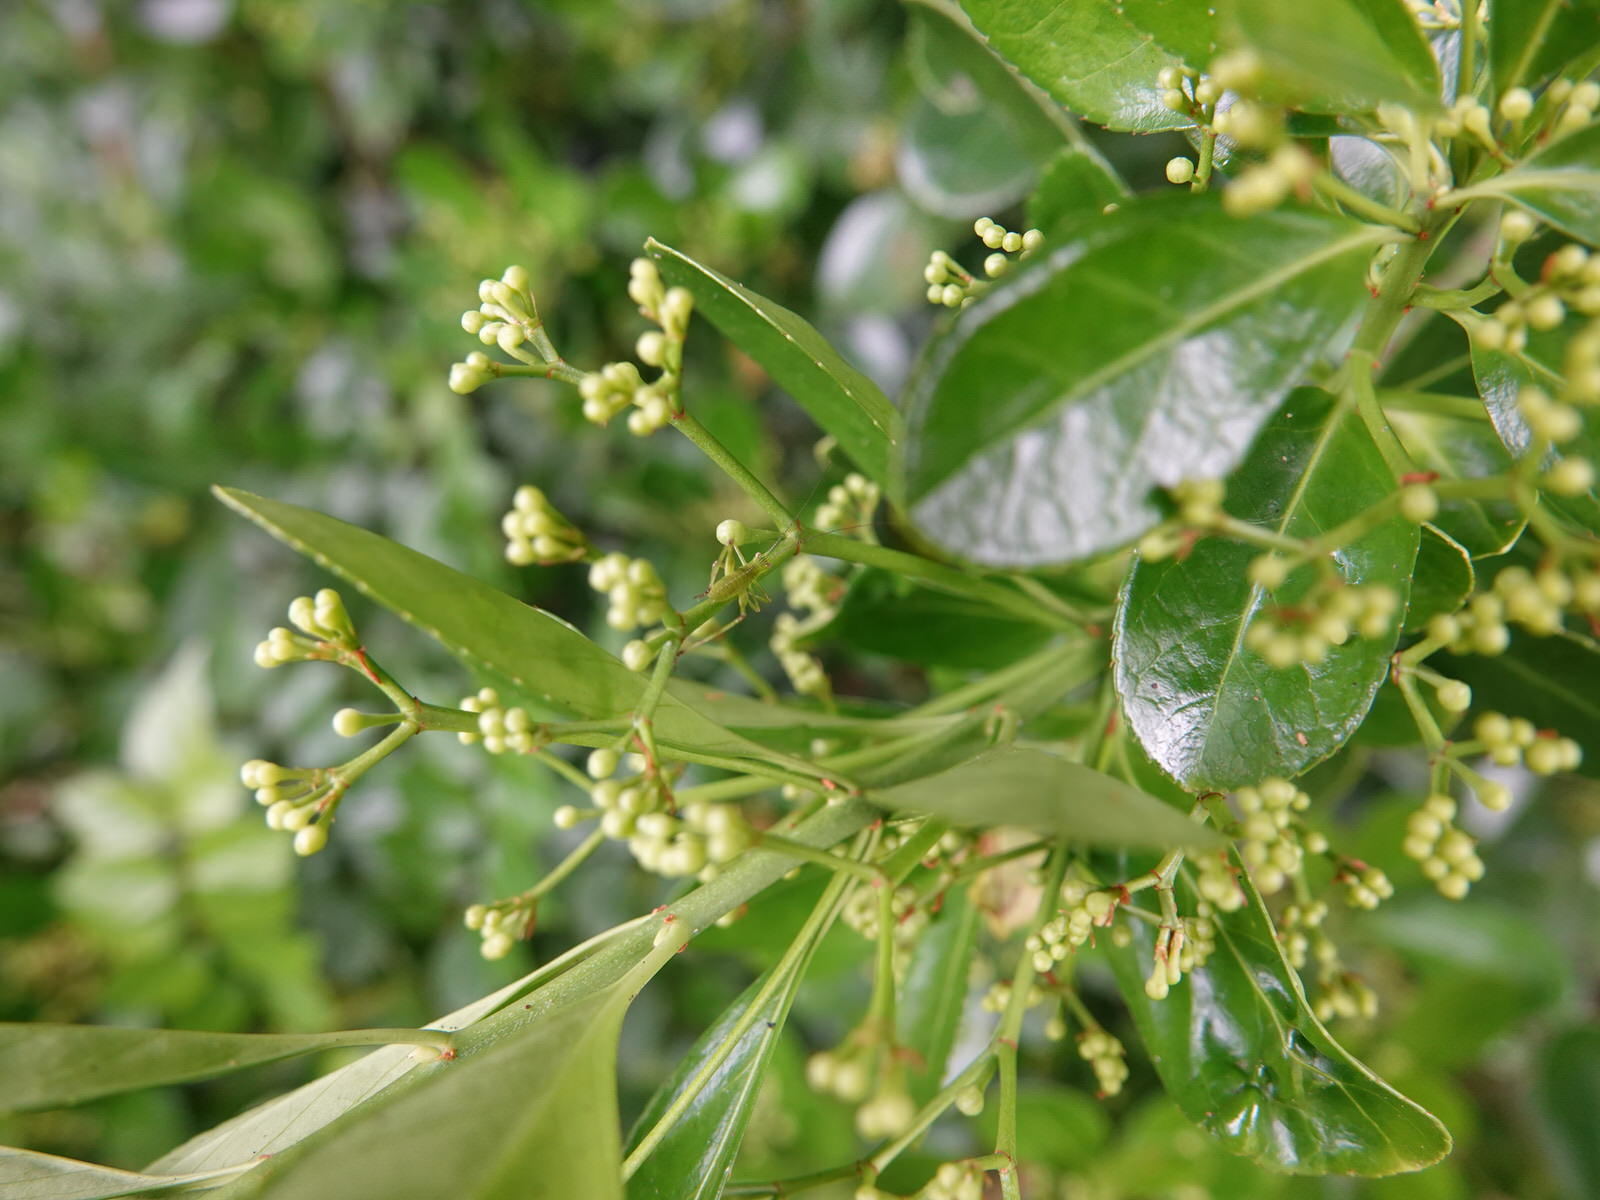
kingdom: Animalia
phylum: Arthropoda
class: Insecta
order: Orthoptera
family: Tettigoniidae
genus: Caedicia
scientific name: Caedicia simplex
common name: Common garden katydid
